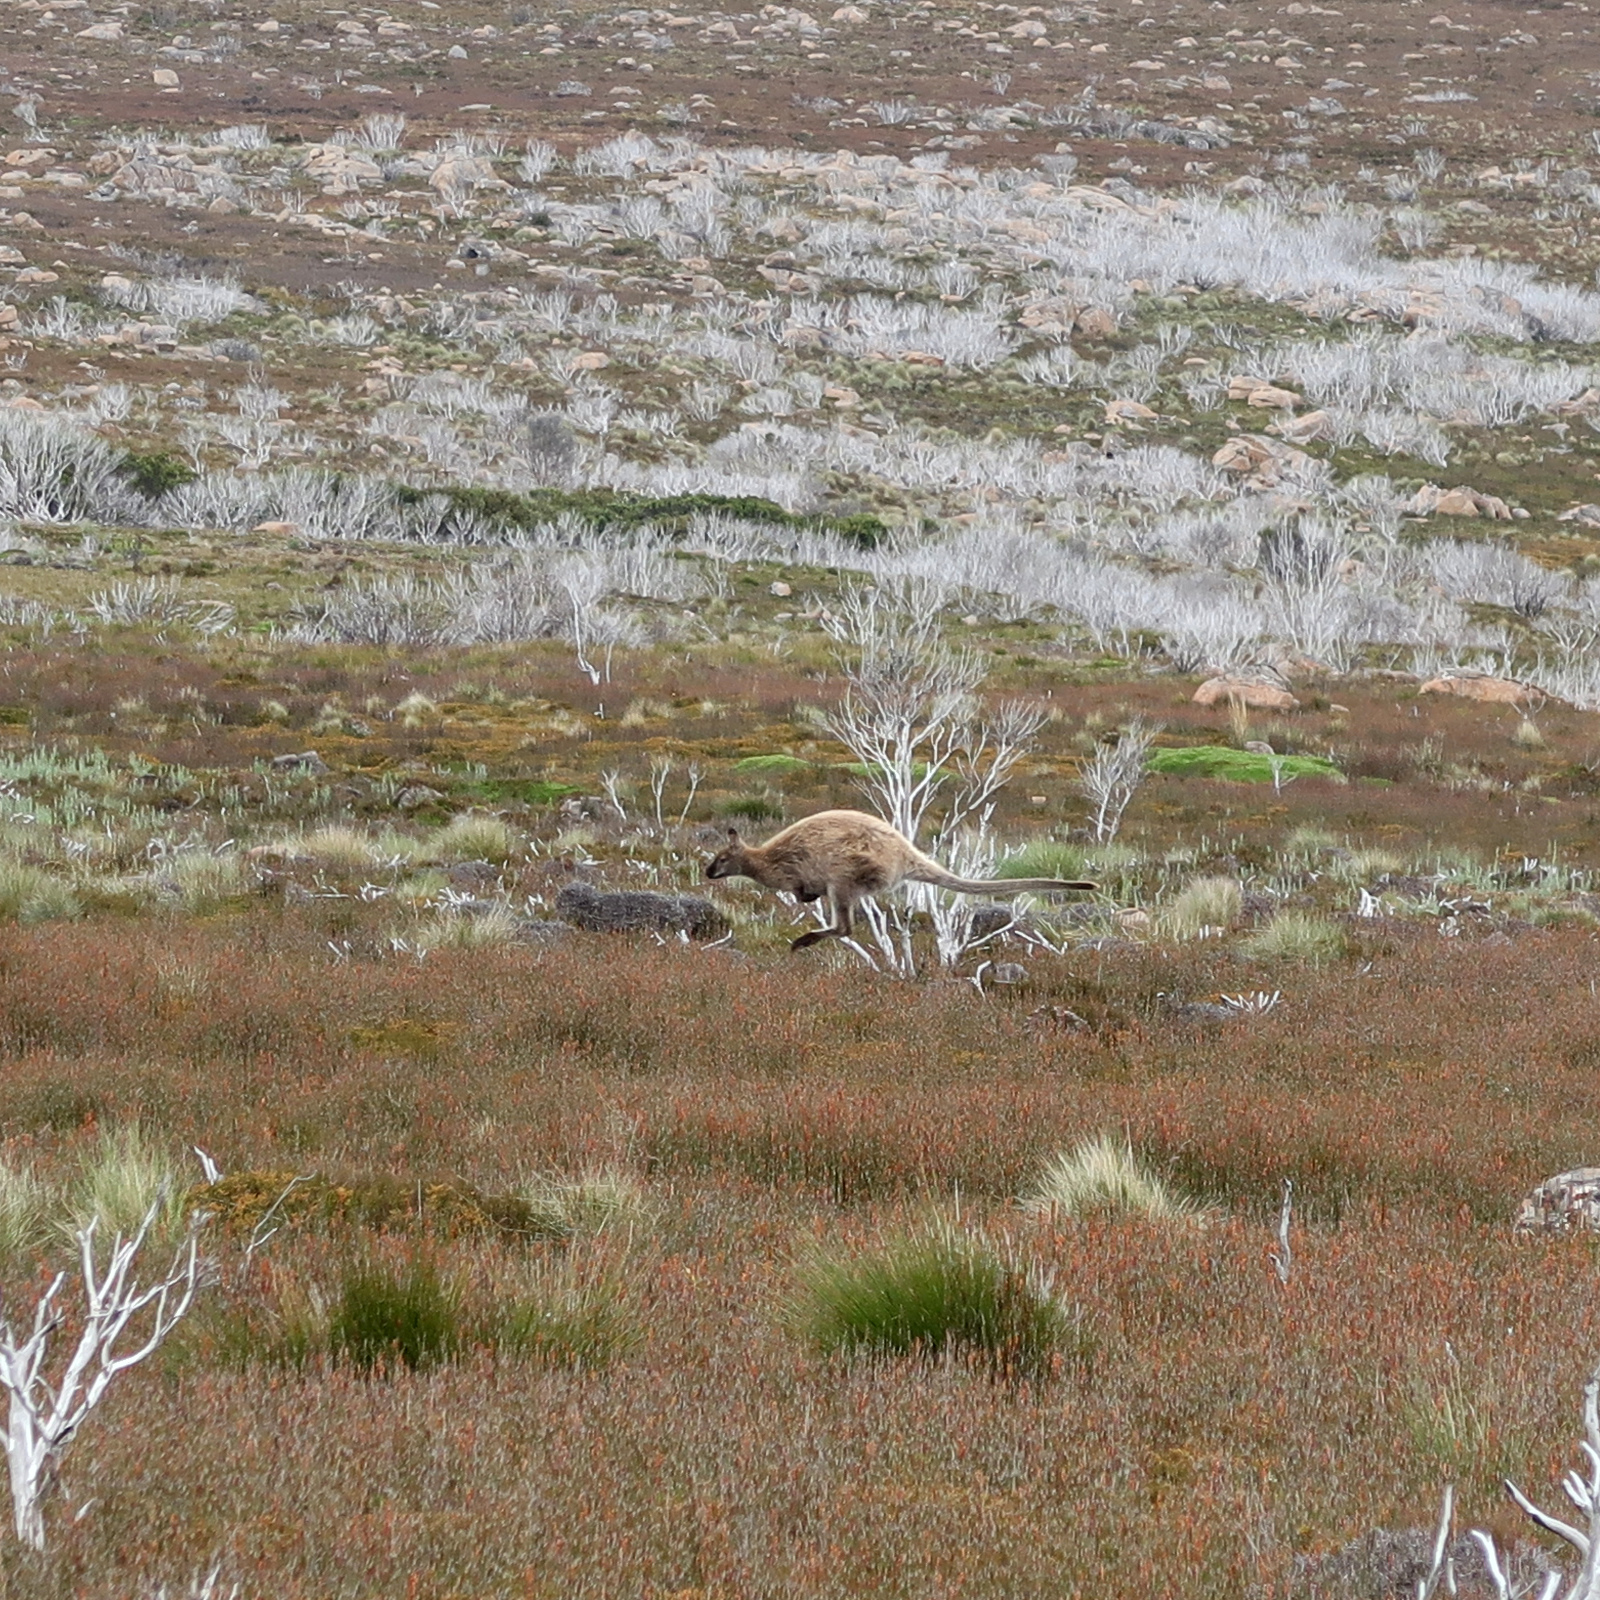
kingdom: Animalia
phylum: Chordata
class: Mammalia
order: Diprotodontia
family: Macropodidae
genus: Notamacropus
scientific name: Notamacropus rufogriseus
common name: Red-necked wallaby
